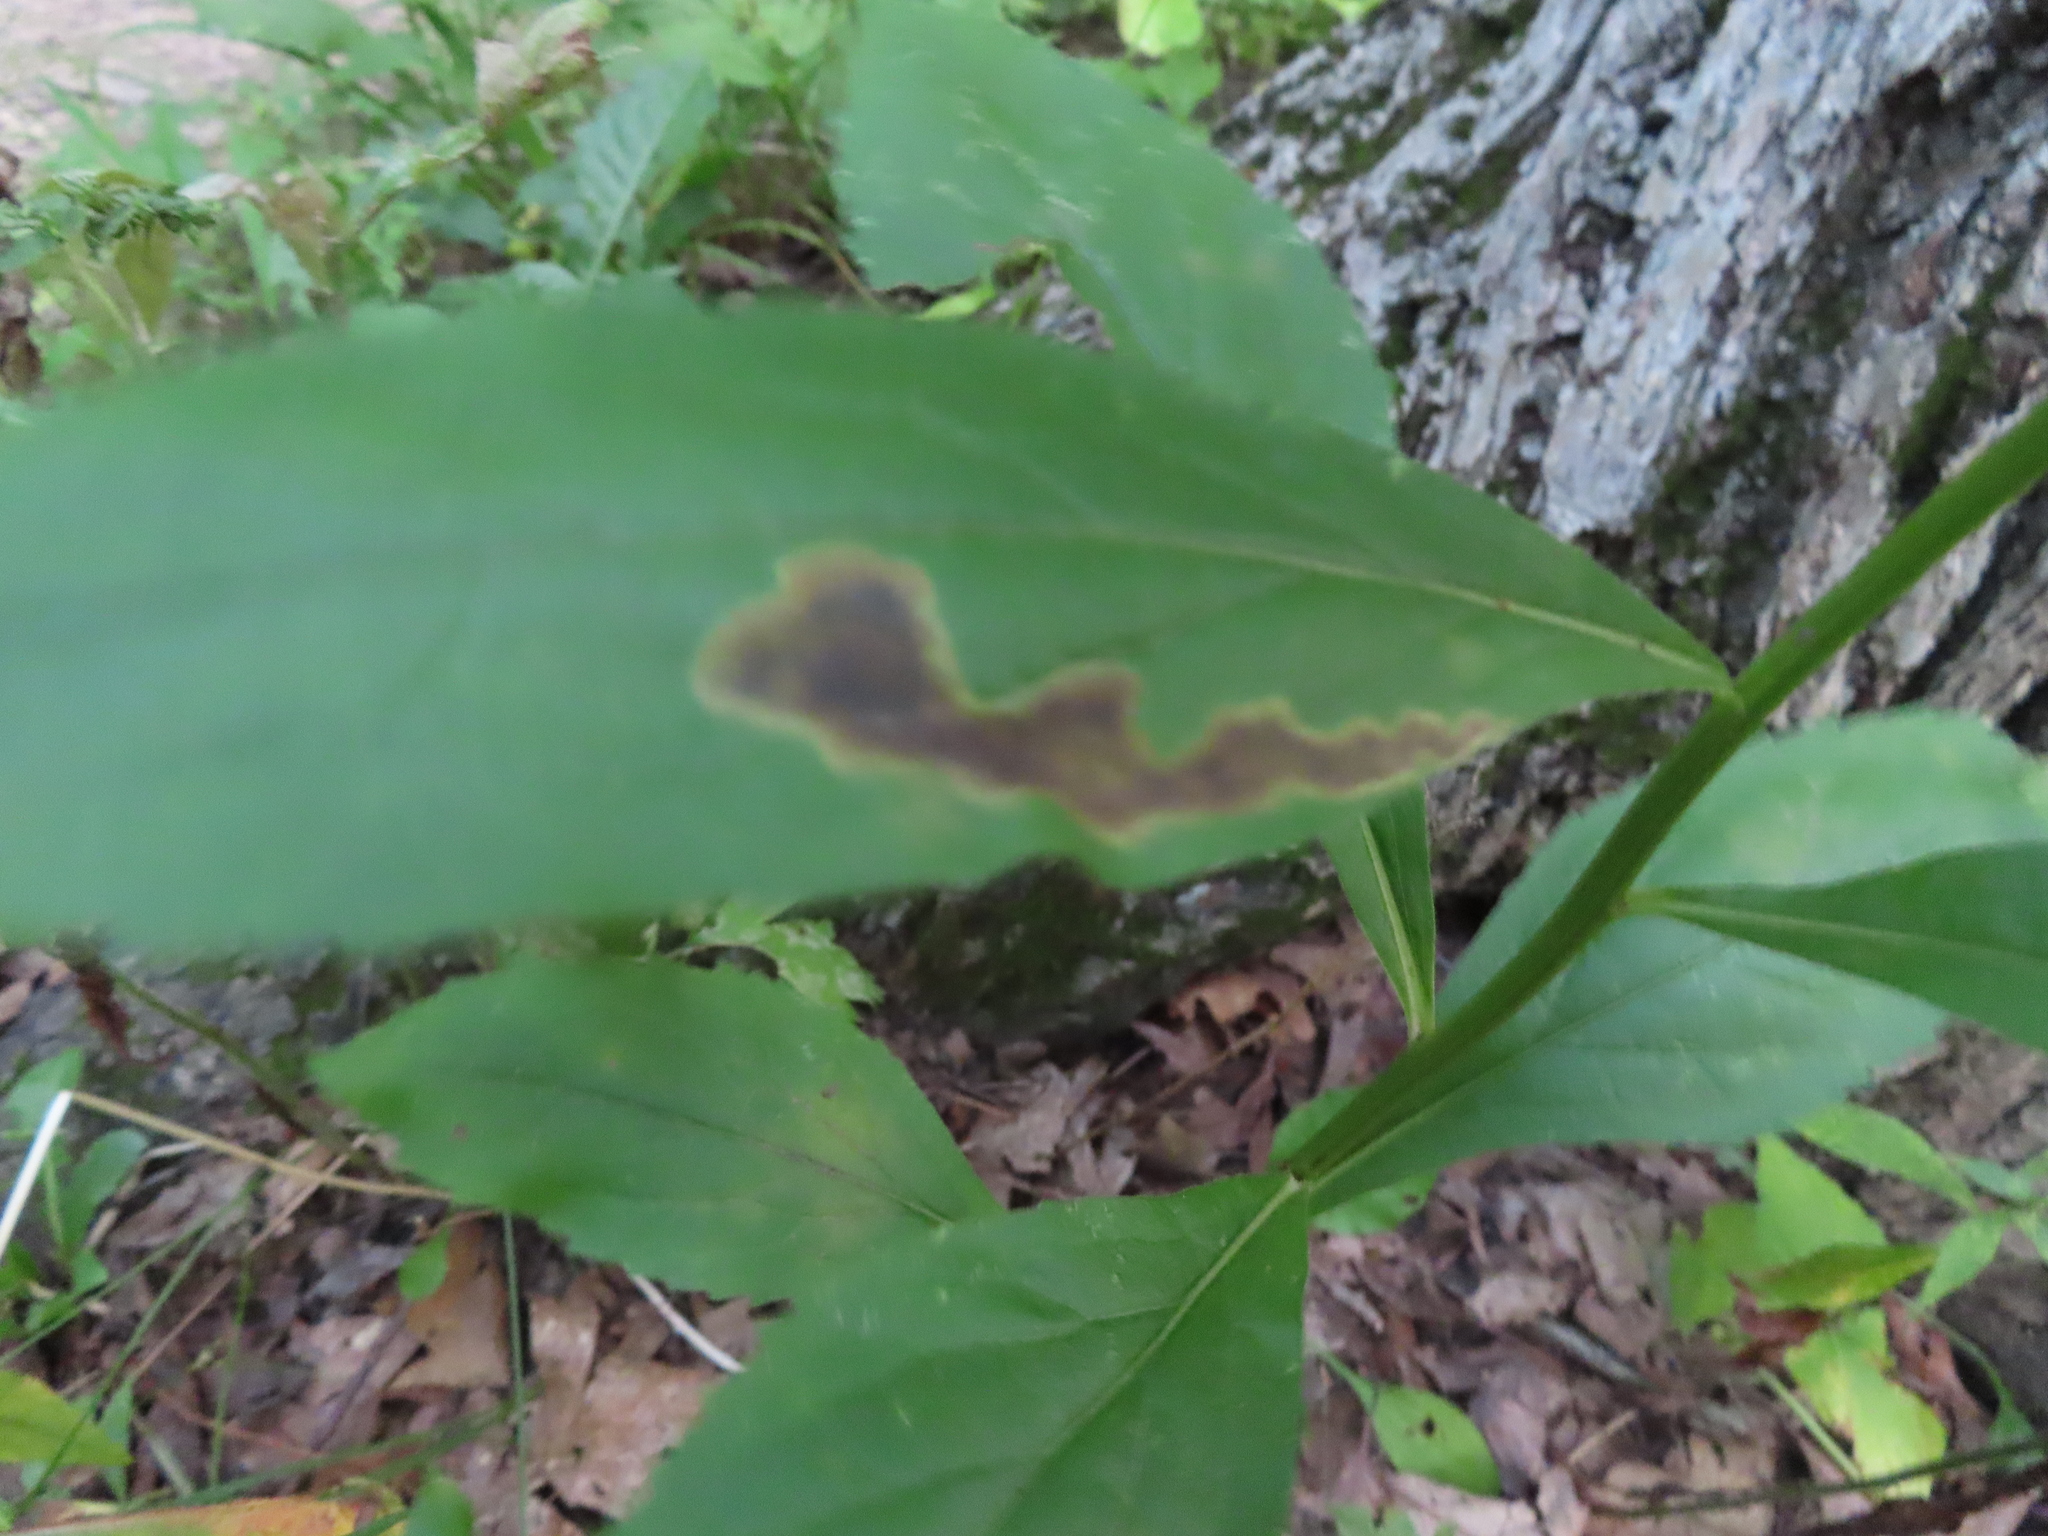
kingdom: Animalia
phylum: Arthropoda
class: Insecta
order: Diptera
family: Agromyzidae
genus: Nemorimyza
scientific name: Nemorimyza posticata
